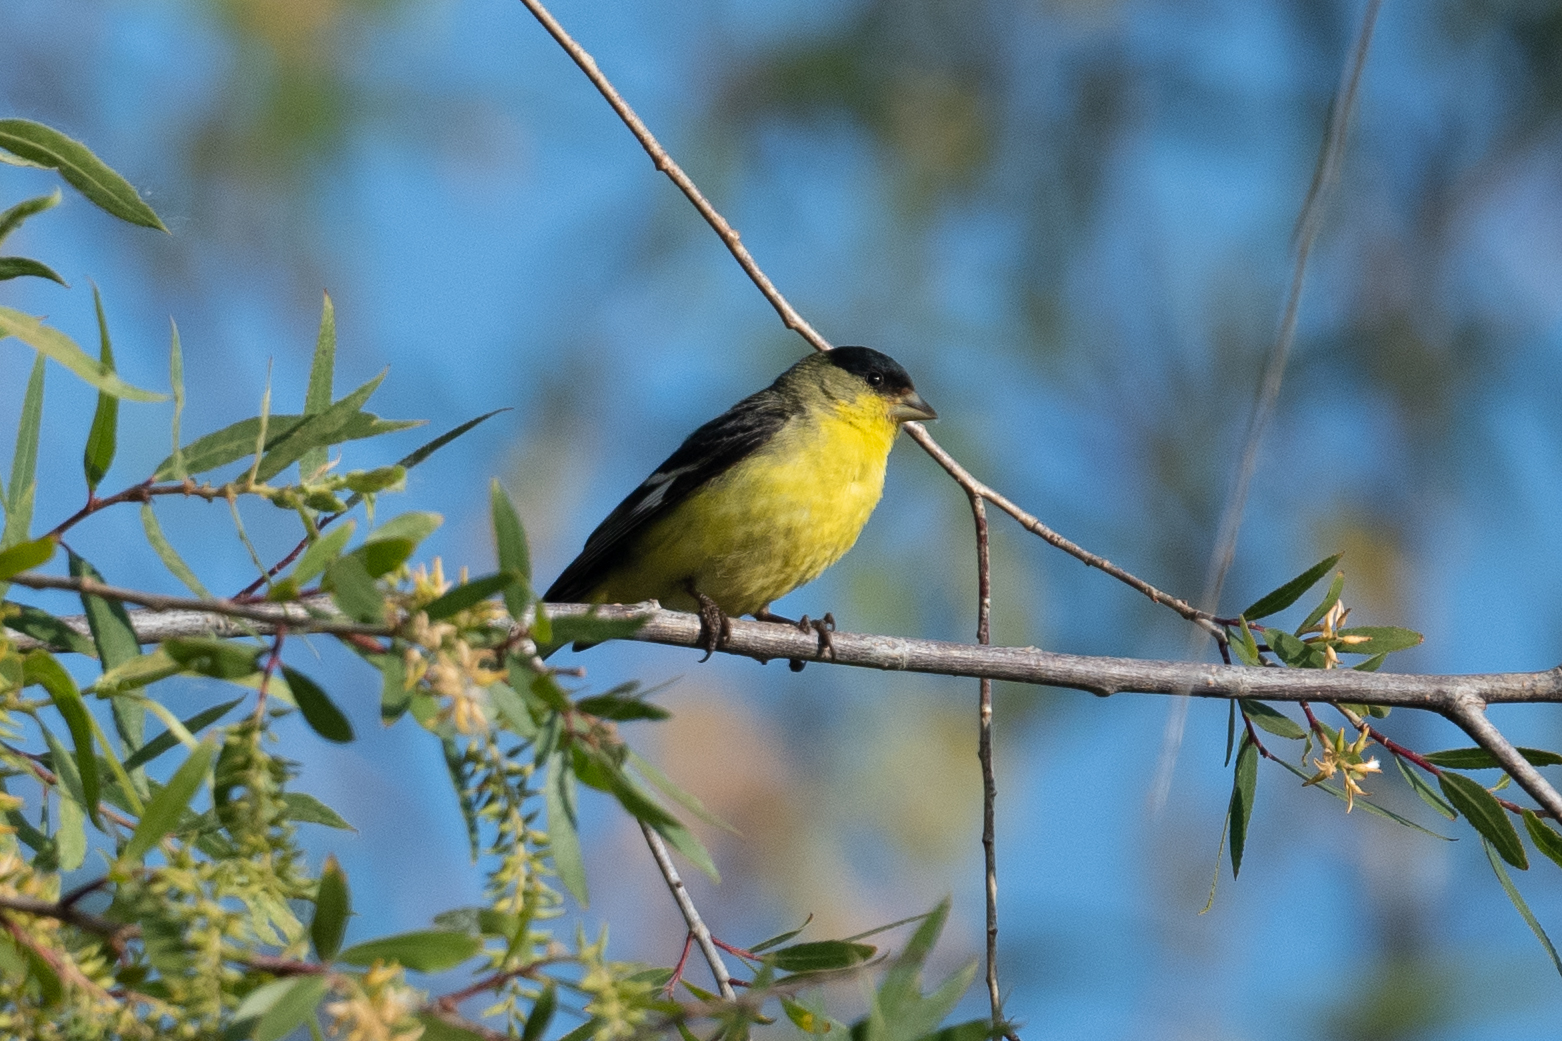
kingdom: Animalia
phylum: Chordata
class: Aves
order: Passeriformes
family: Fringillidae
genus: Spinus
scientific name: Spinus psaltria
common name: Lesser goldfinch
